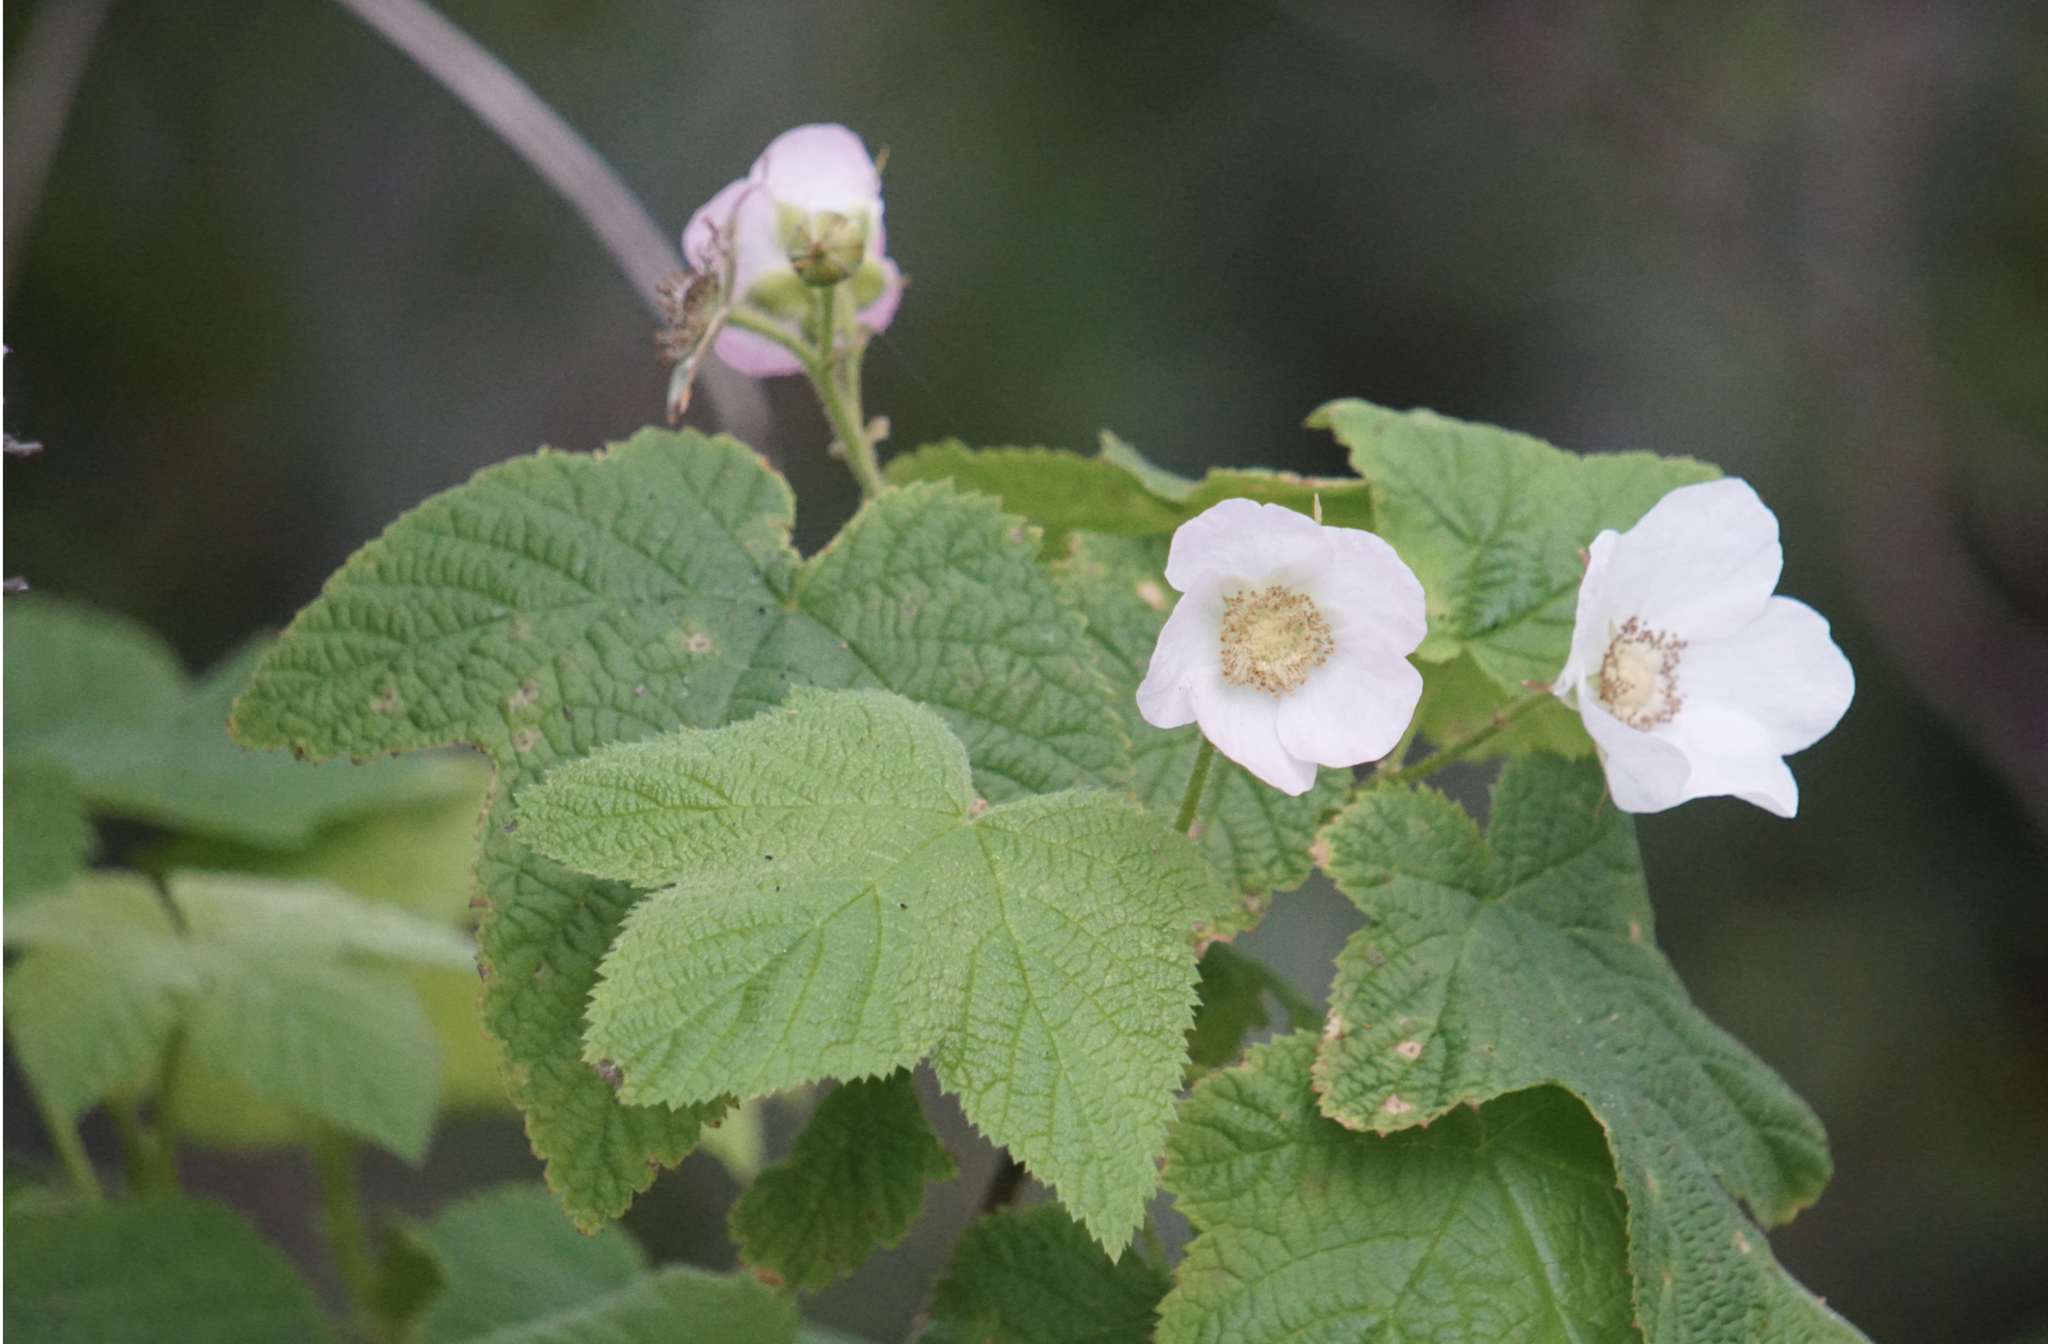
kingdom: Plantae
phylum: Tracheophyta
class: Magnoliopsida
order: Rosales
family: Rosaceae
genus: Rubus
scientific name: Rubus parviflorus
